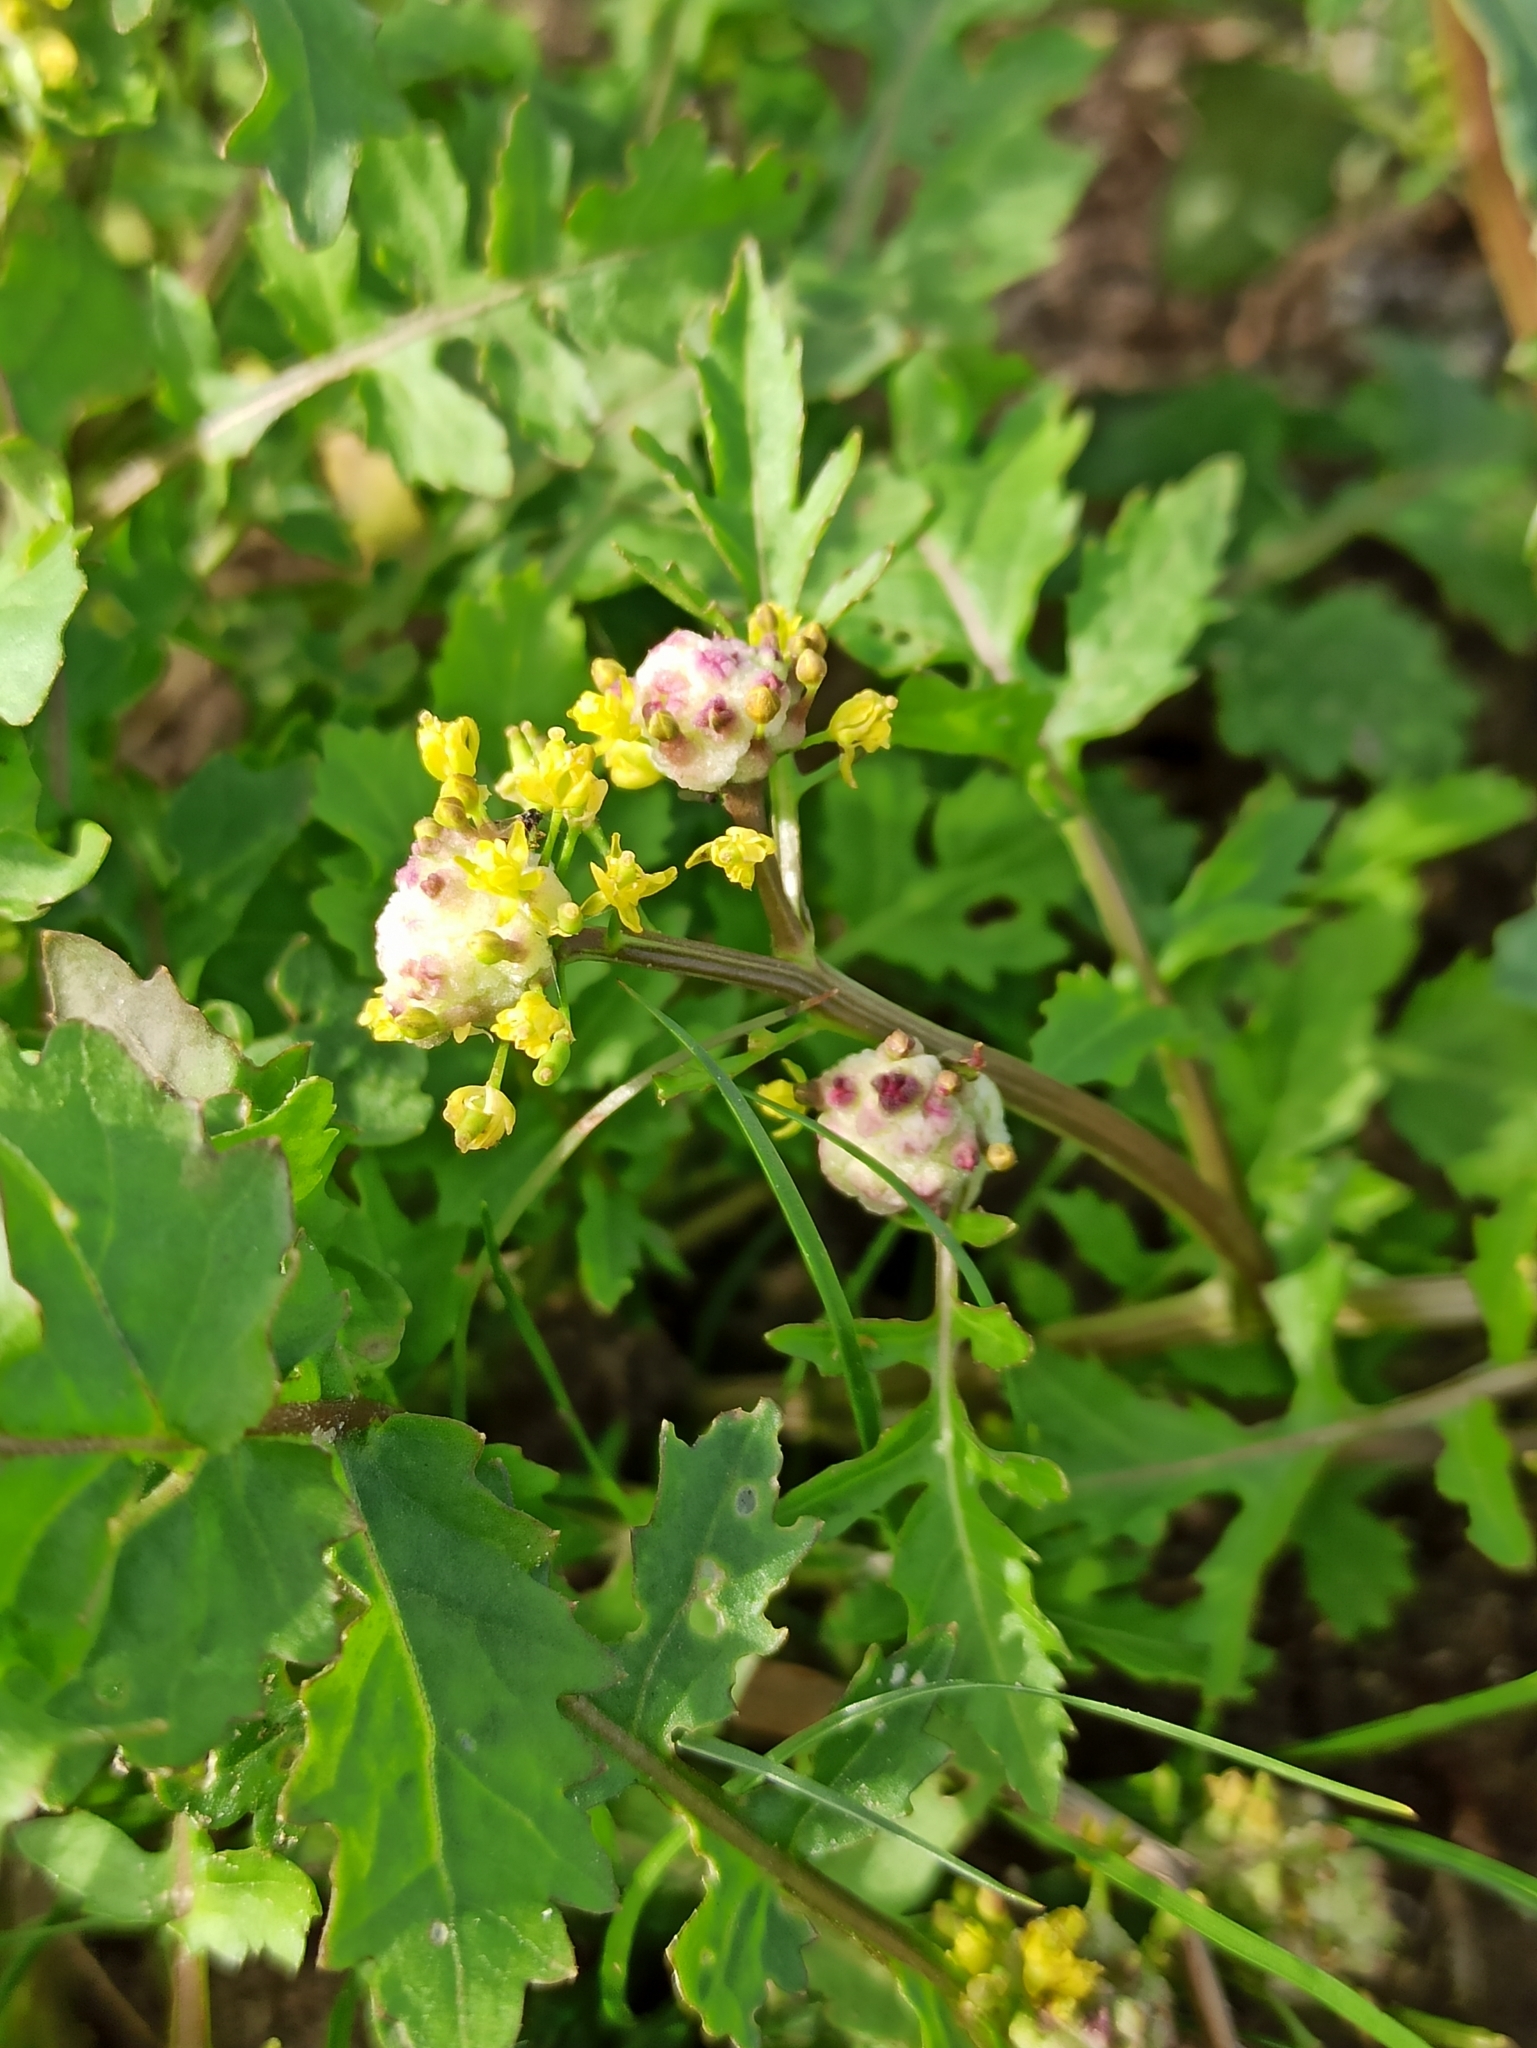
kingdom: Plantae
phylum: Tracheophyta
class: Magnoliopsida
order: Brassicales
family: Brassicaceae
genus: Rorippa
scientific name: Rorippa palustris
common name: Marsh yellow-cress
